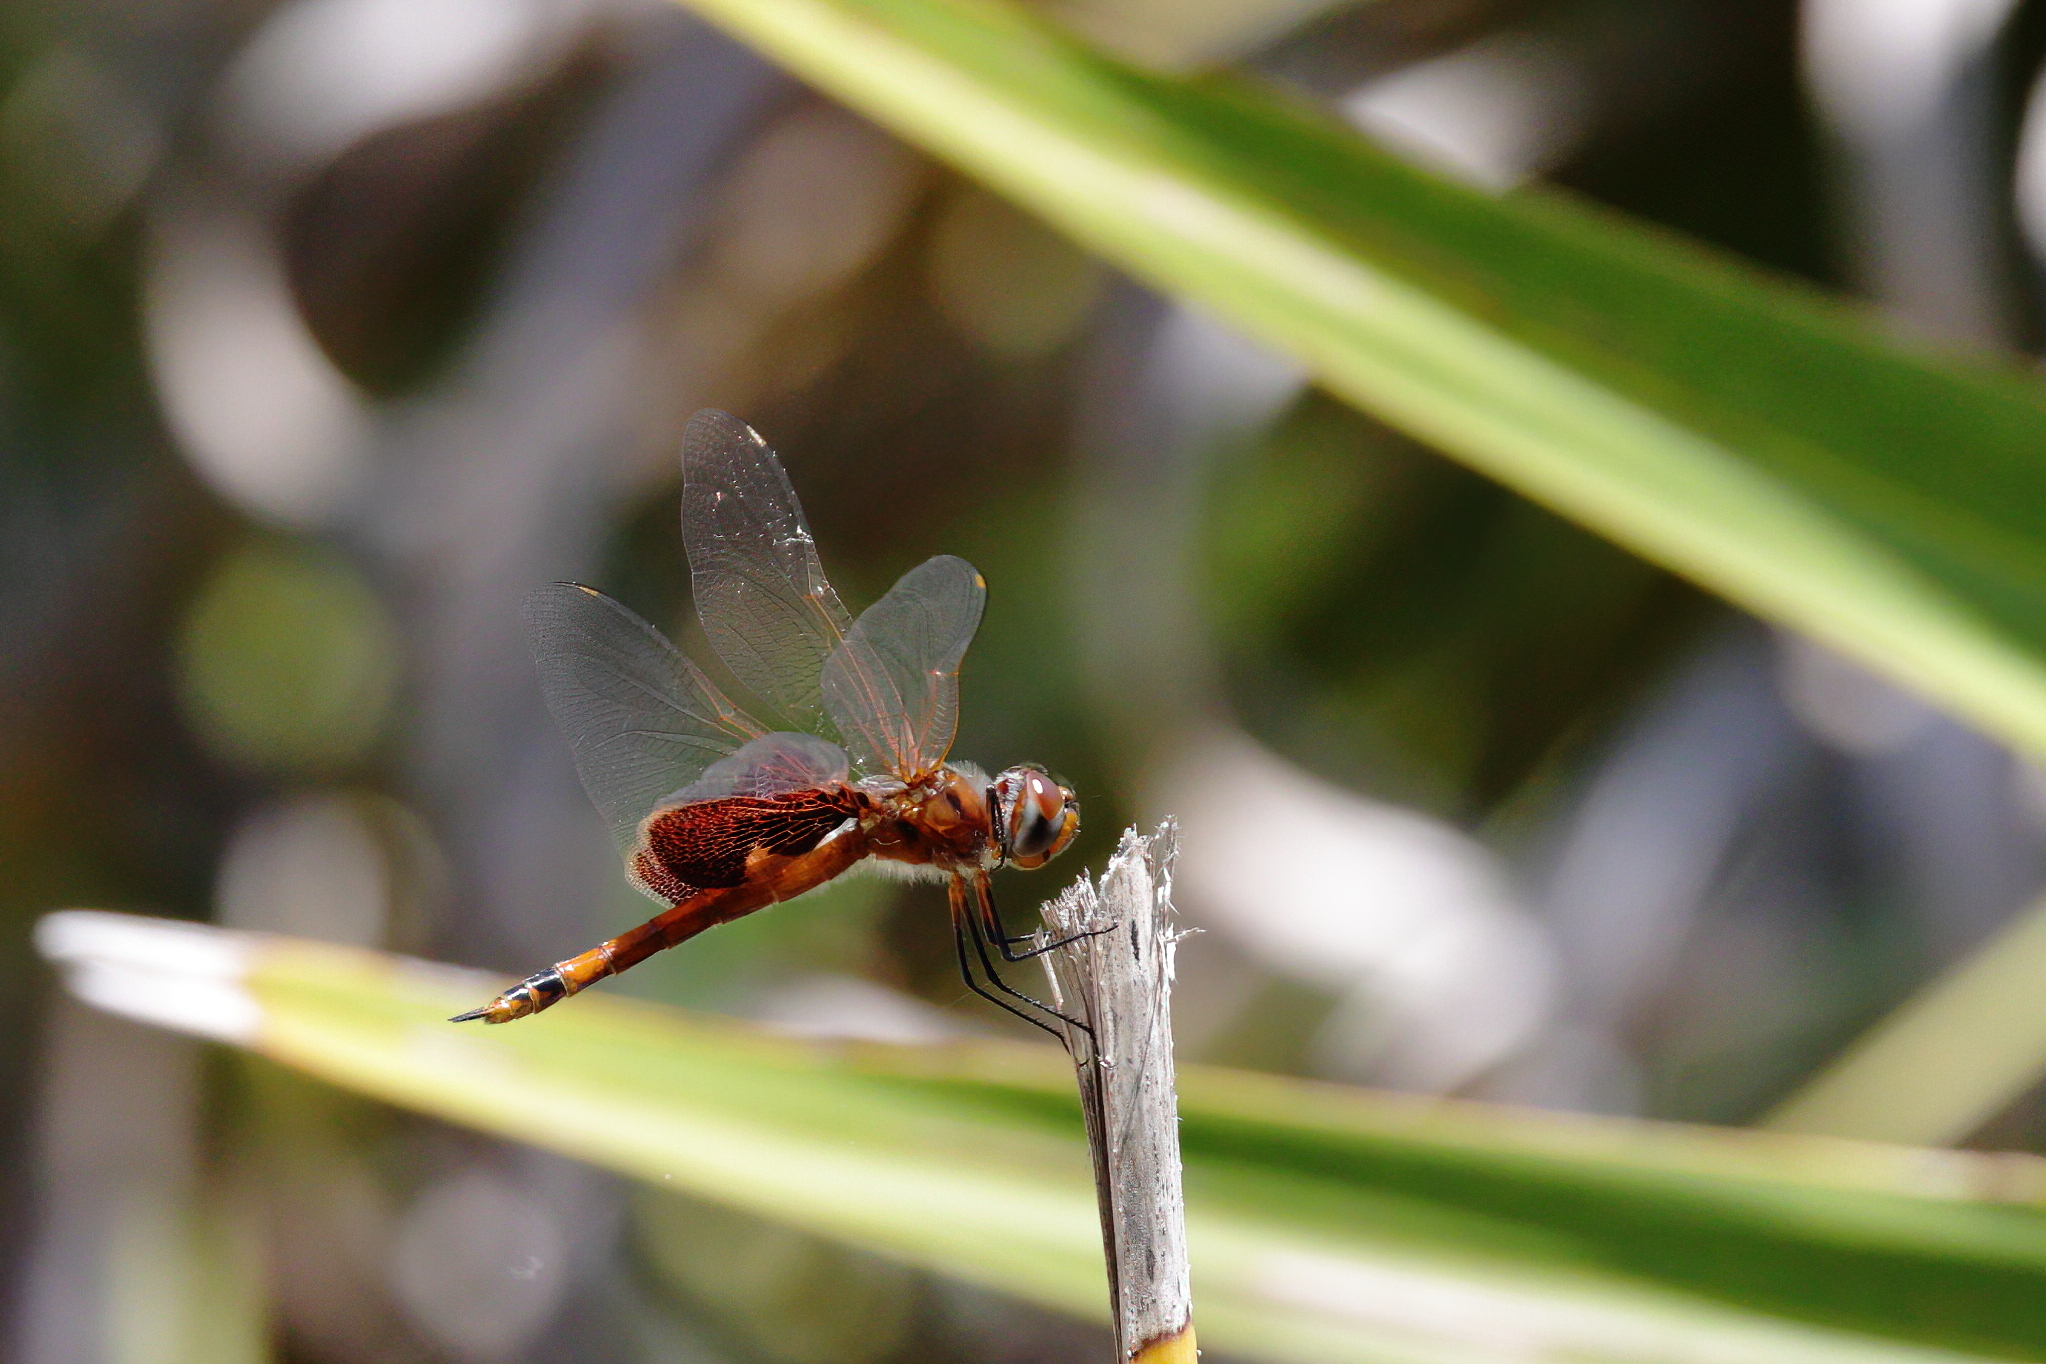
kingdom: Animalia
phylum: Arthropoda
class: Insecta
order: Odonata
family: Libellulidae
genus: Tramea
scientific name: Tramea carolina
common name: Carolina saddlebags
